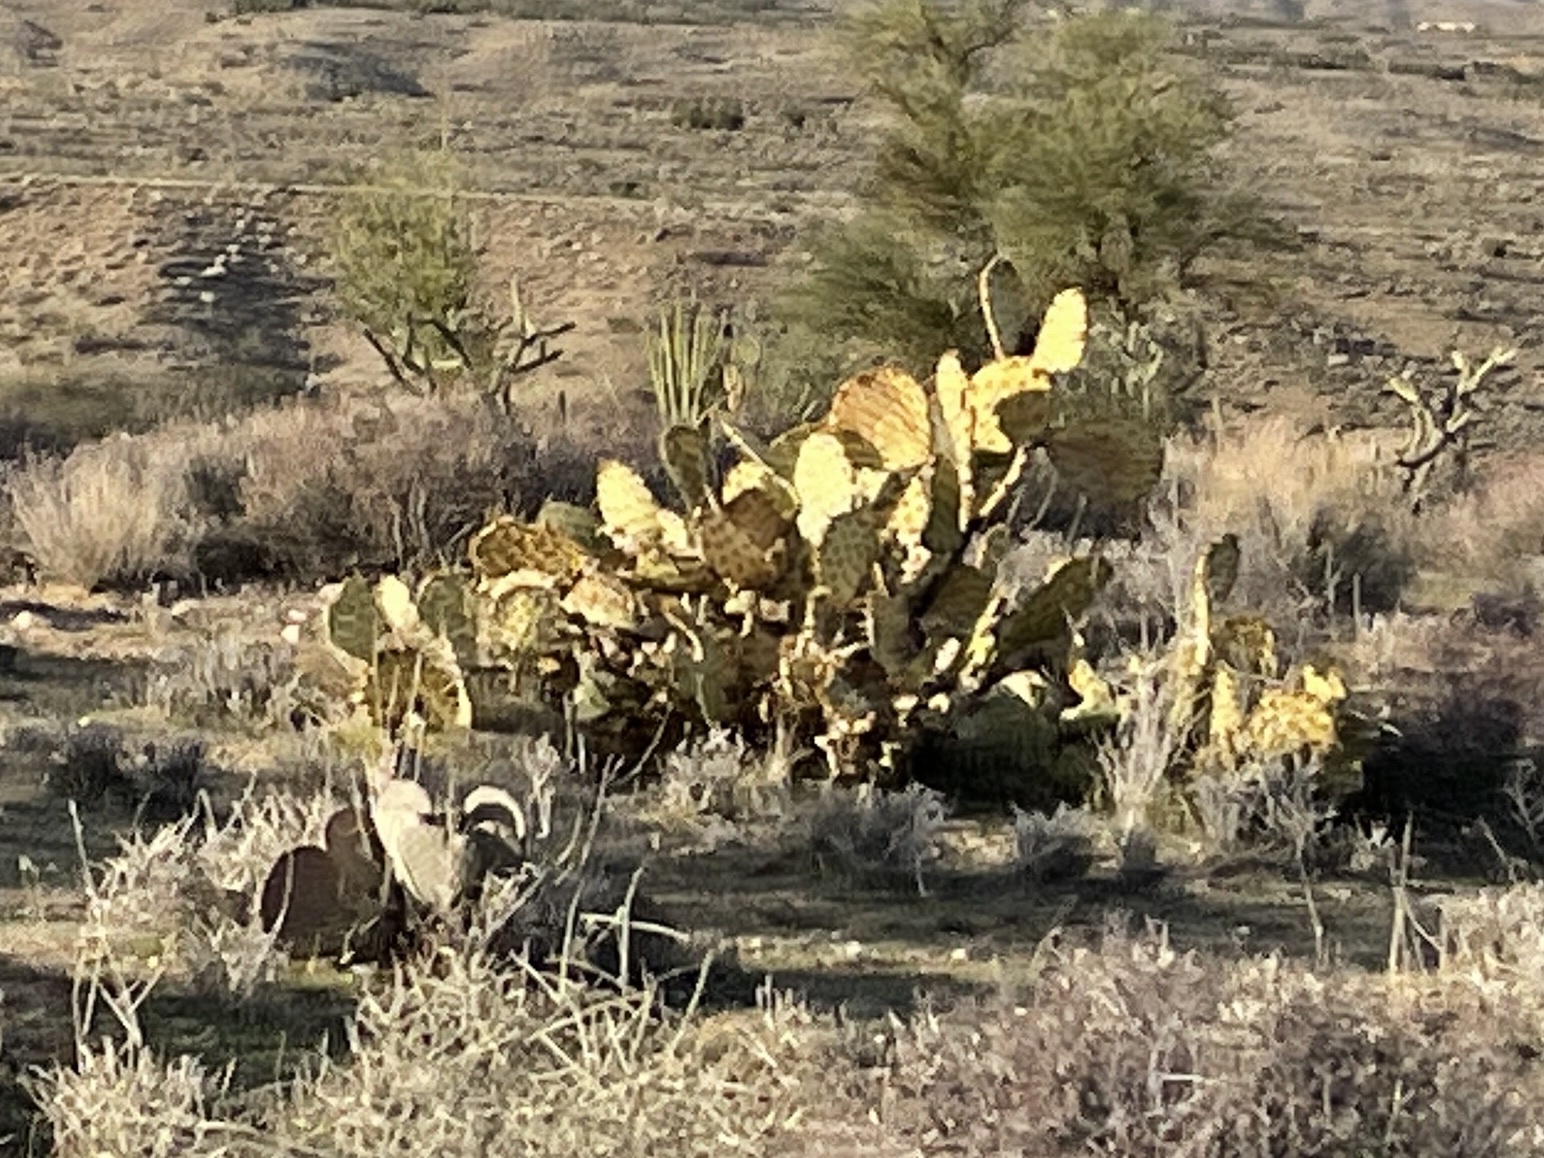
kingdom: Plantae
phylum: Tracheophyta
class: Magnoliopsida
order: Caryophyllales
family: Cactaceae
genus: Opuntia
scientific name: Opuntia engelmannii
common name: Cactus-apple
